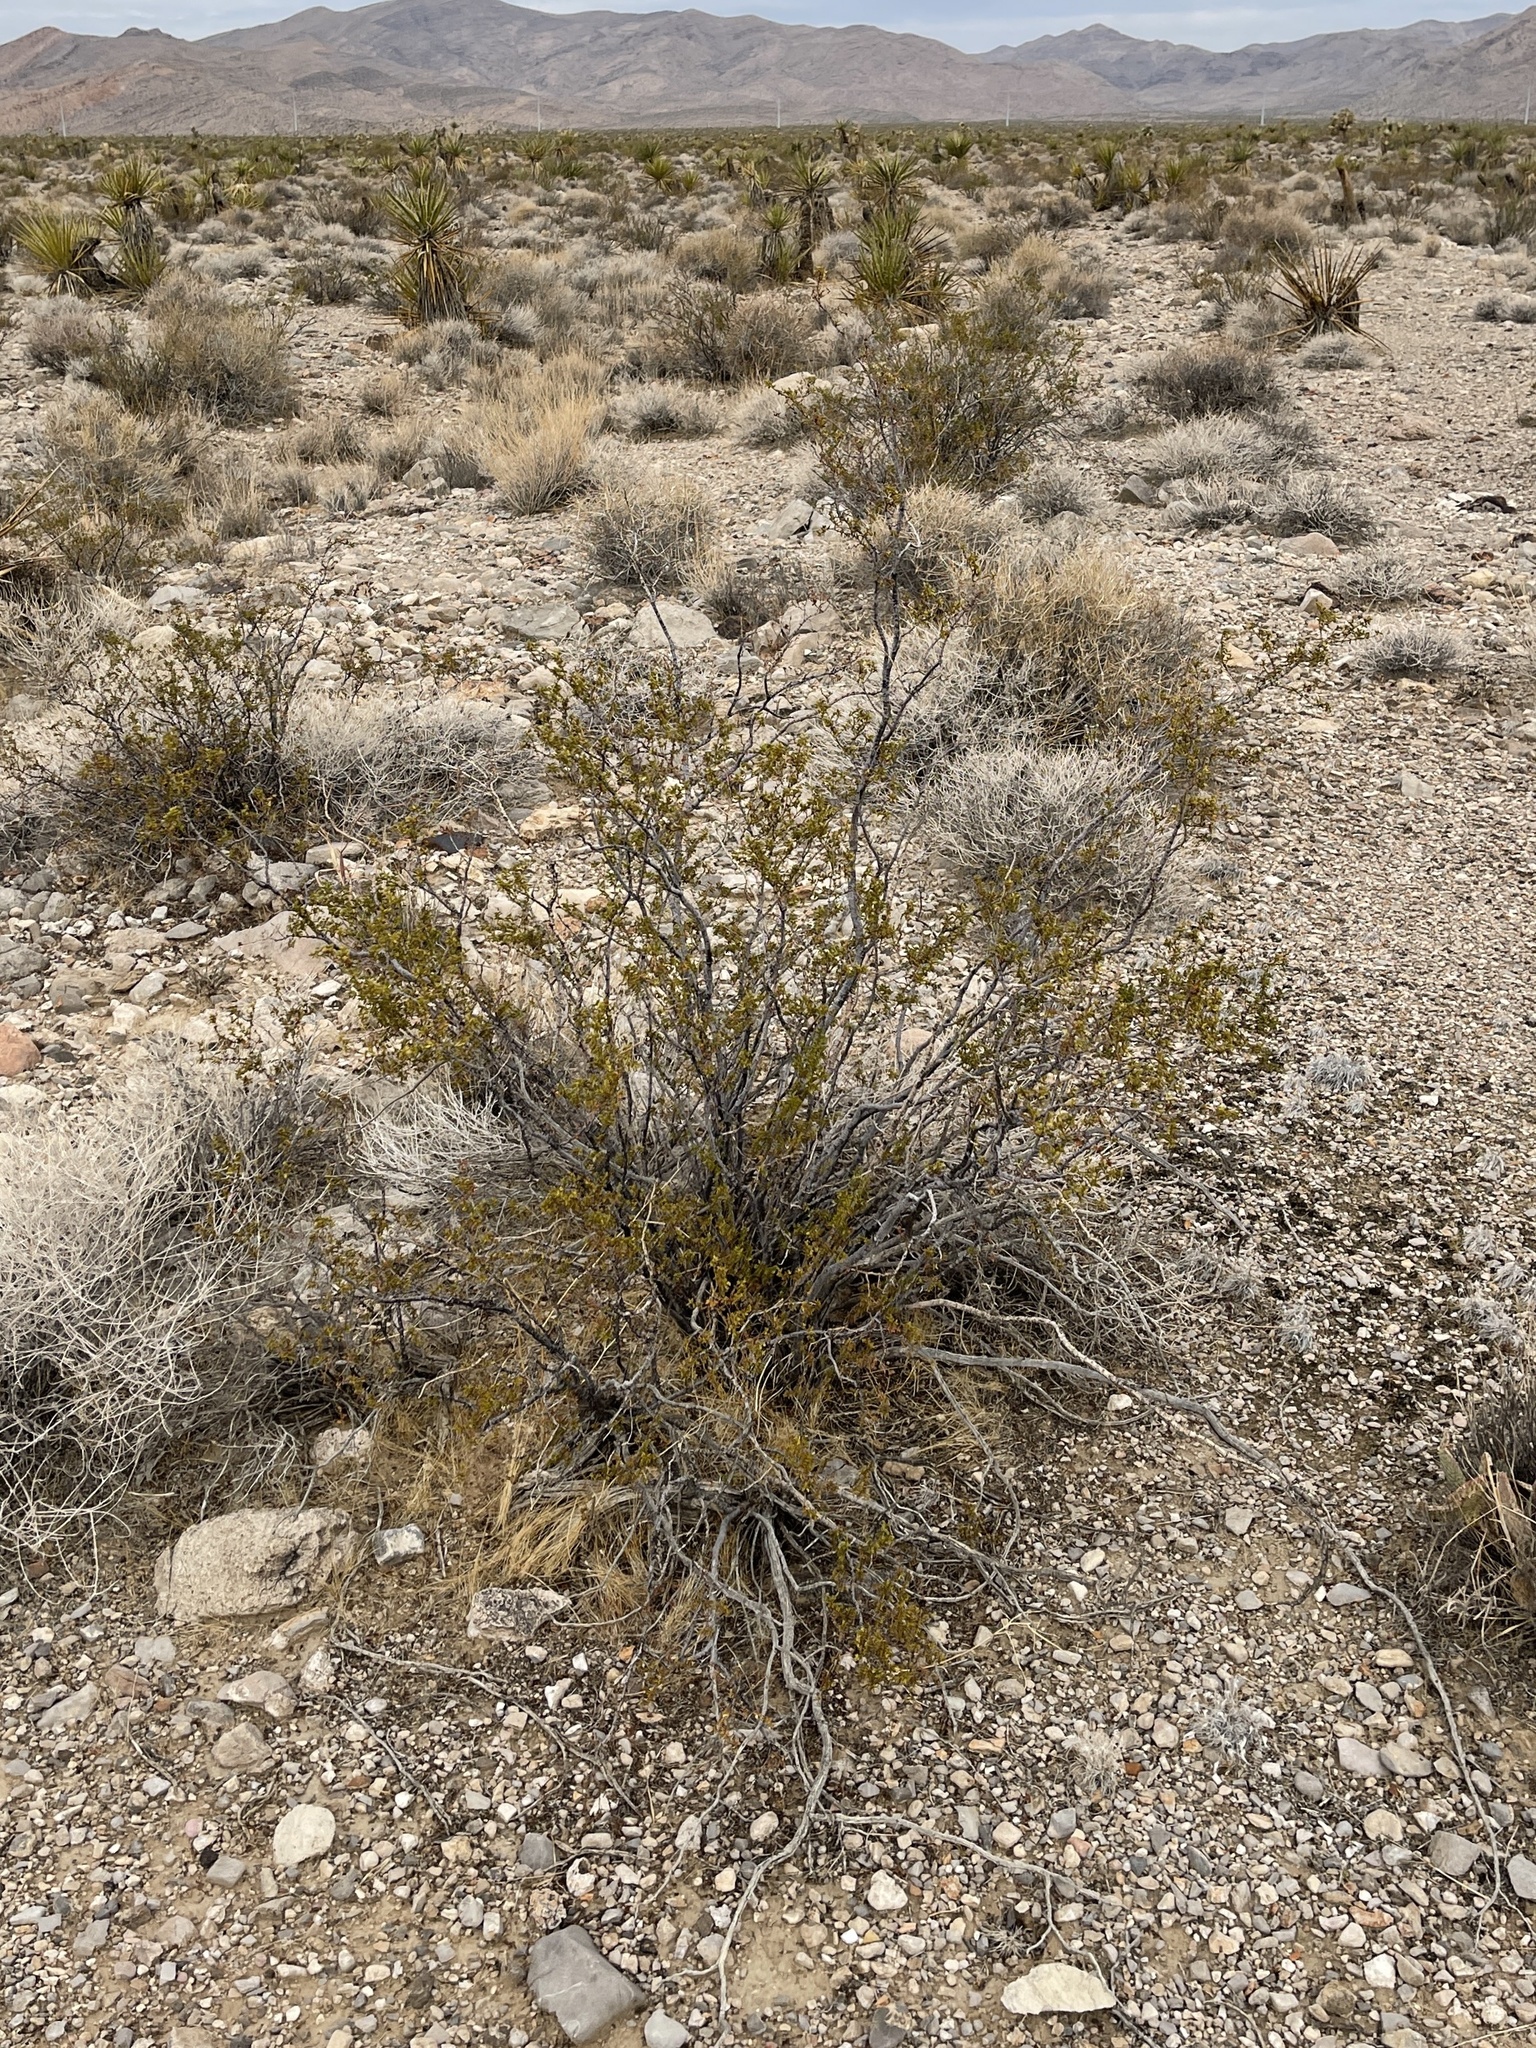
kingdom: Plantae
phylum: Tracheophyta
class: Magnoliopsida
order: Zygophyllales
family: Zygophyllaceae
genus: Larrea
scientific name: Larrea tridentata
